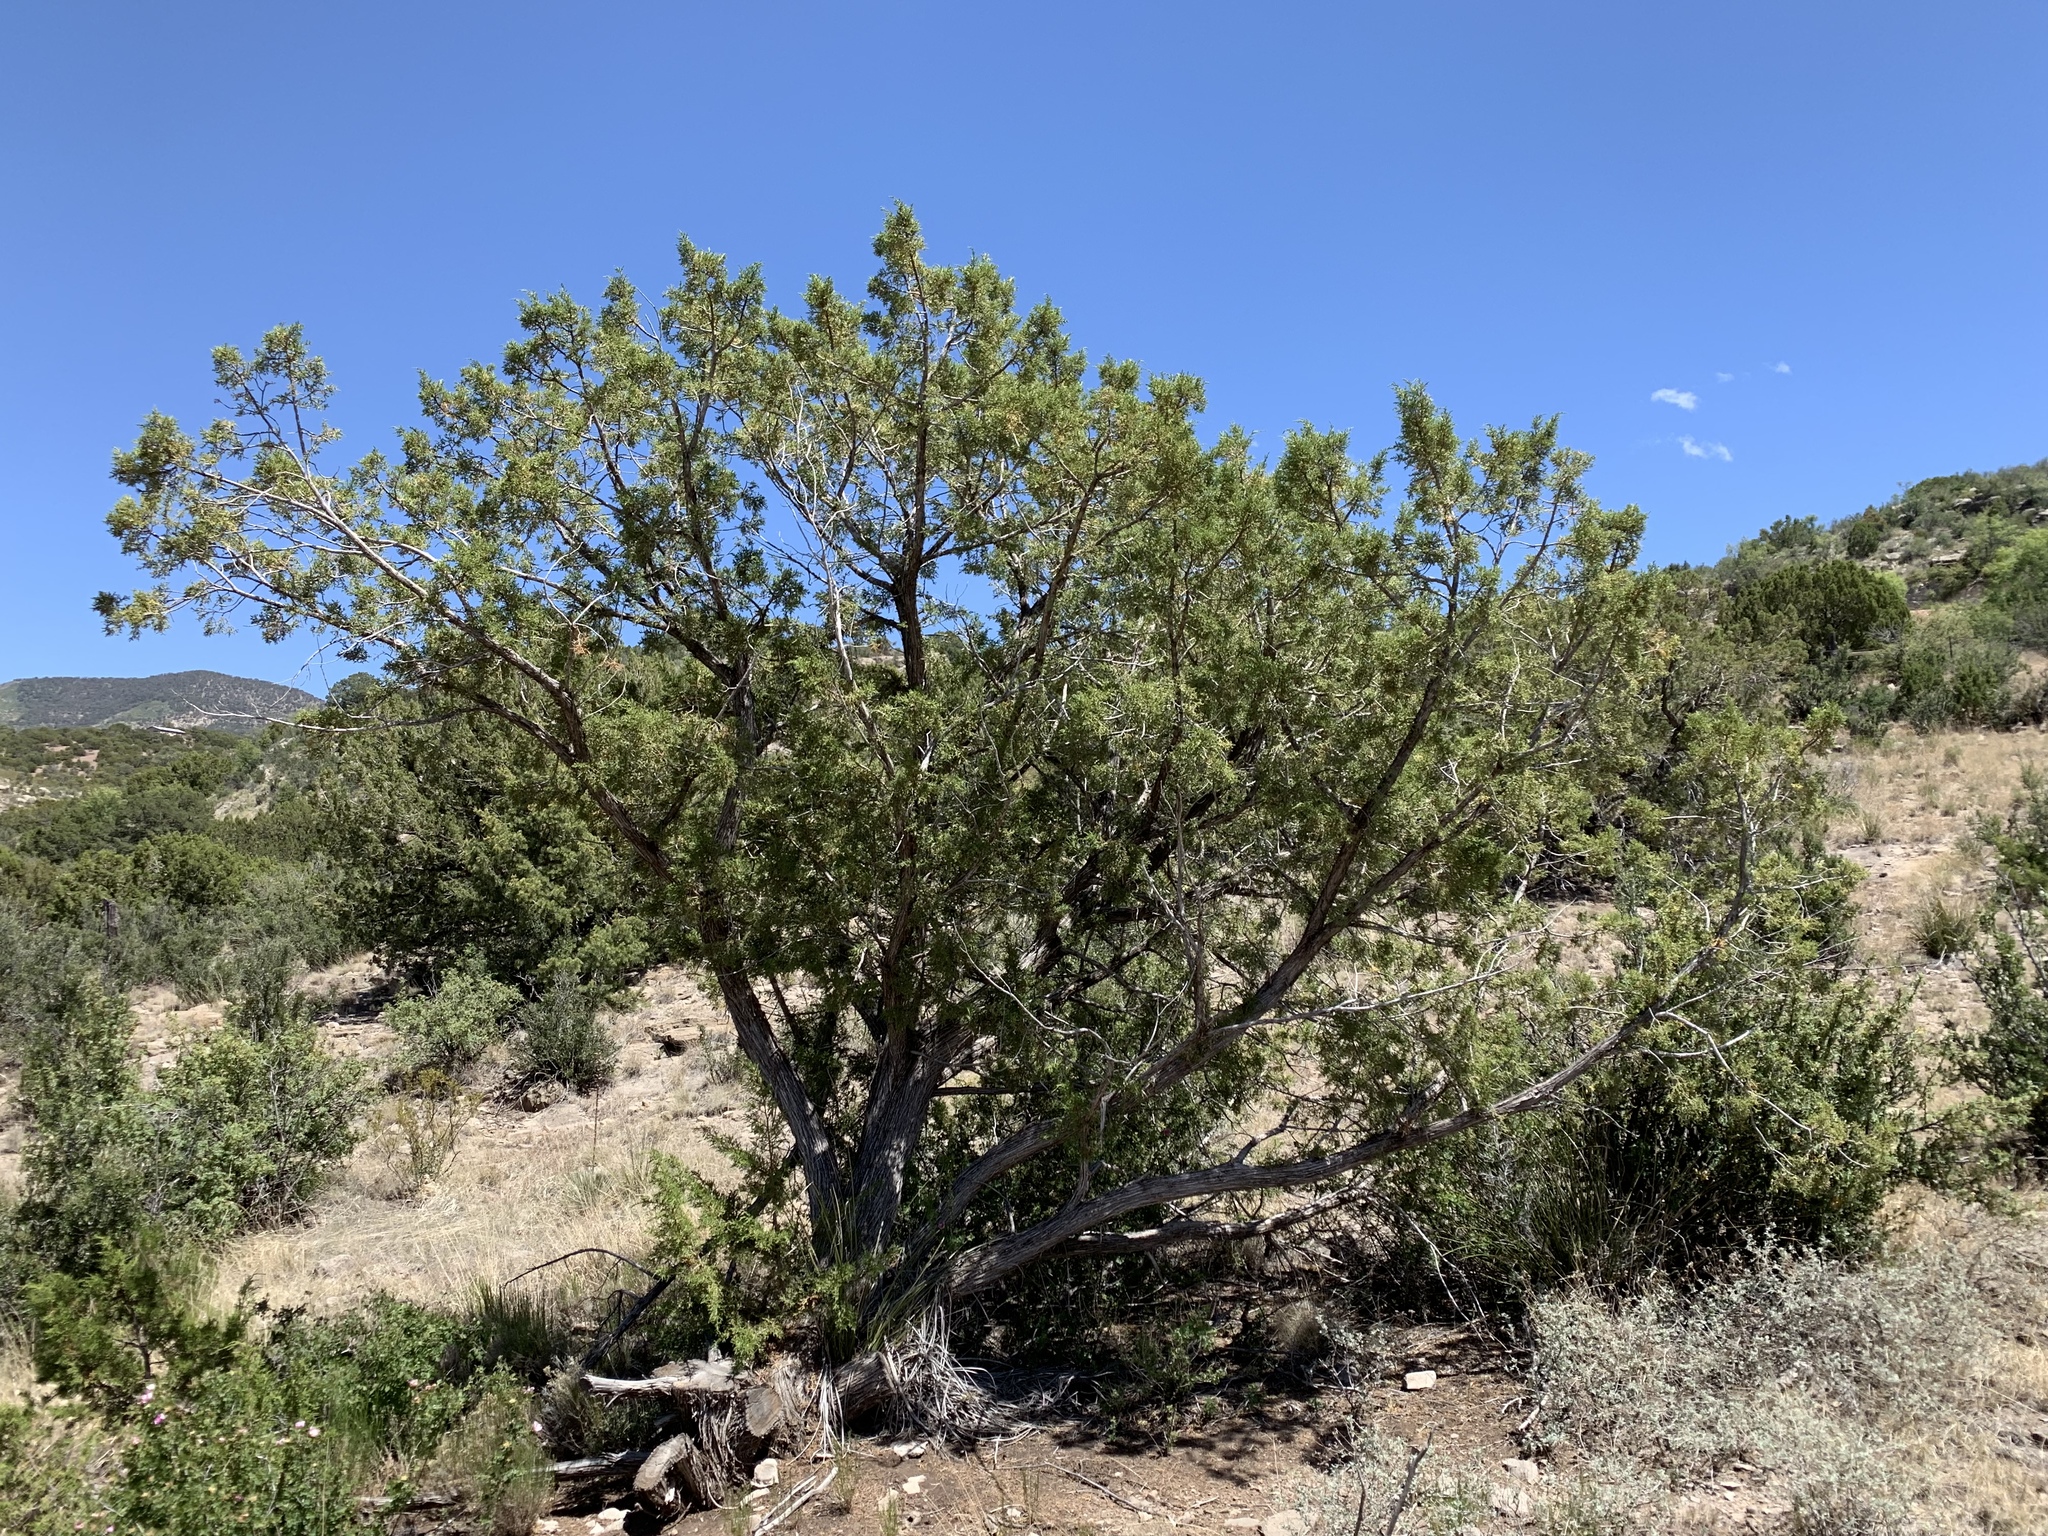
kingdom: Plantae
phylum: Tracheophyta
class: Pinopsida
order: Pinales
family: Cupressaceae
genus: Juniperus
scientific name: Juniperus monosperma
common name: One-seed juniper
